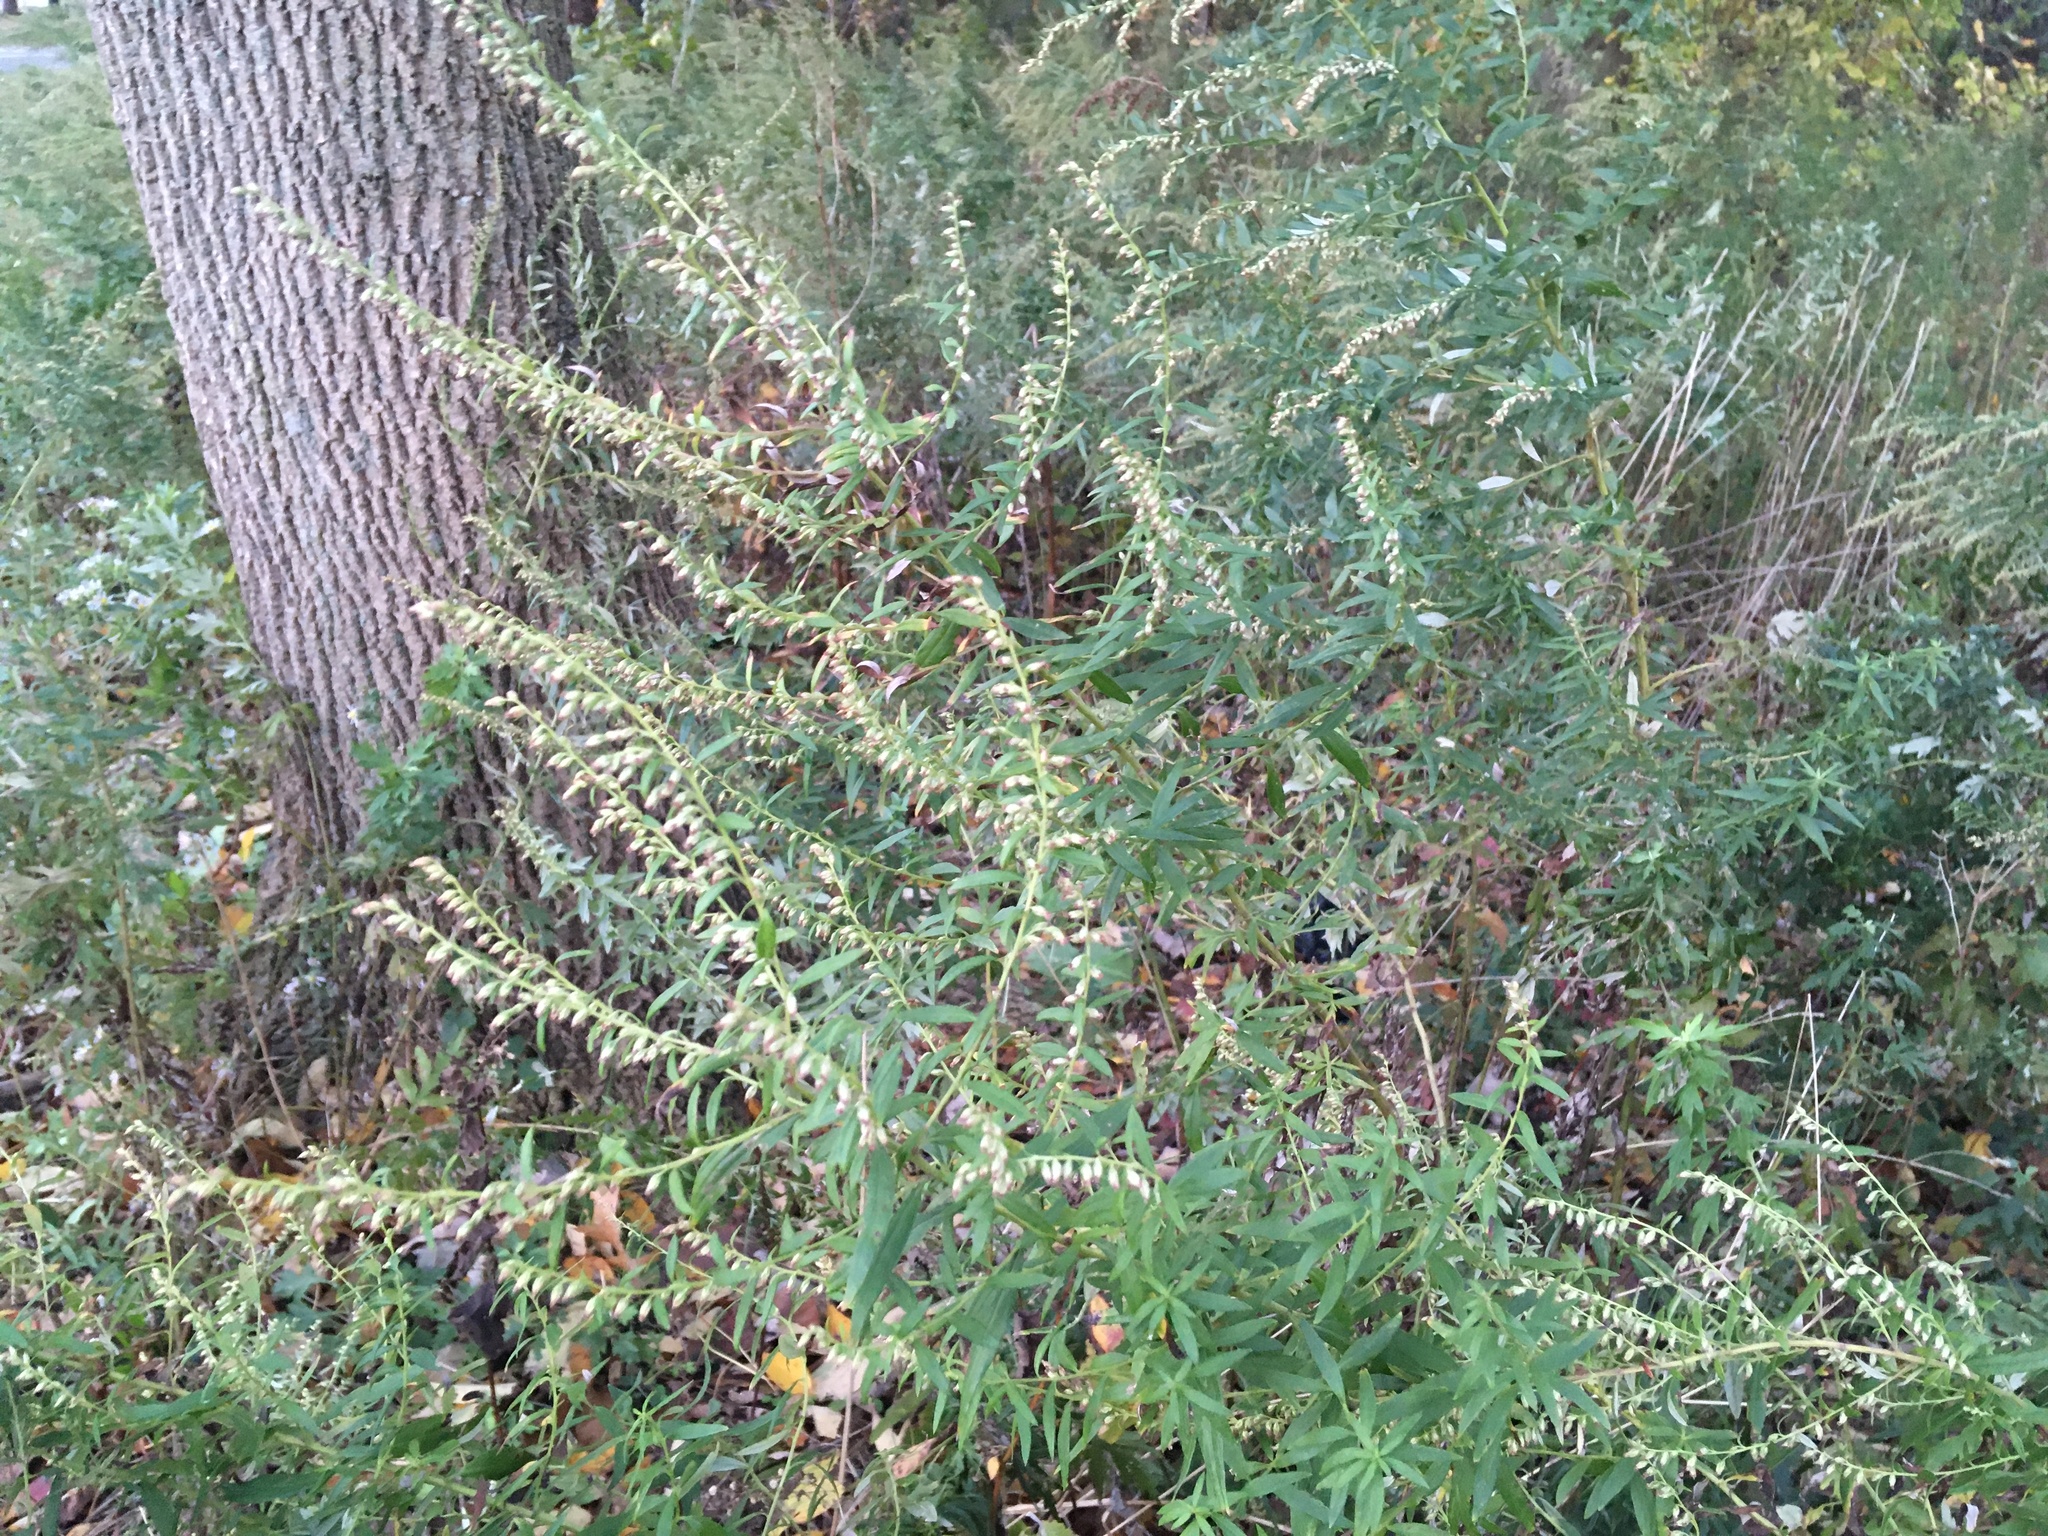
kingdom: Plantae
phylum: Tracheophyta
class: Magnoliopsida
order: Asterales
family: Asteraceae
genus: Artemisia
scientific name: Artemisia vulgaris
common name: Mugwort
